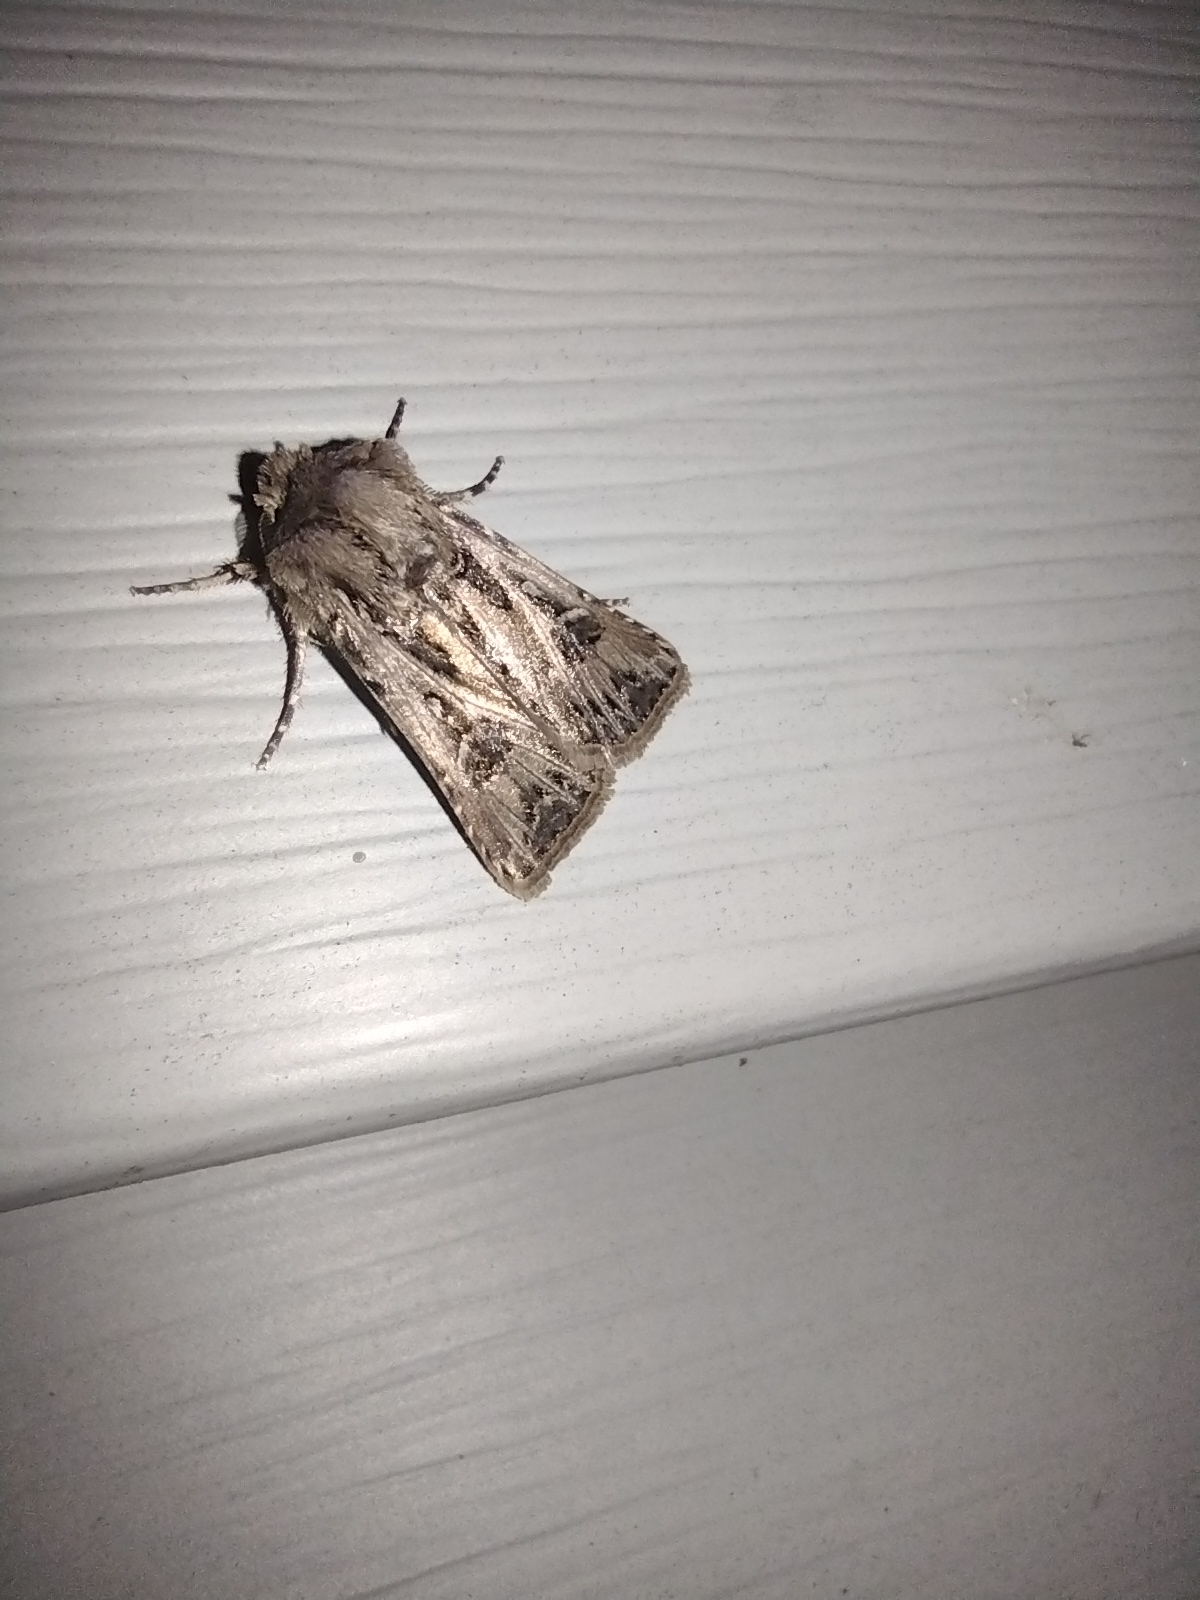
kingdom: Animalia
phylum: Arthropoda
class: Insecta
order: Lepidoptera
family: Noctuidae
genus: Agrotis
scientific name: Agrotis gladiaria
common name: Claybacked cutworm
